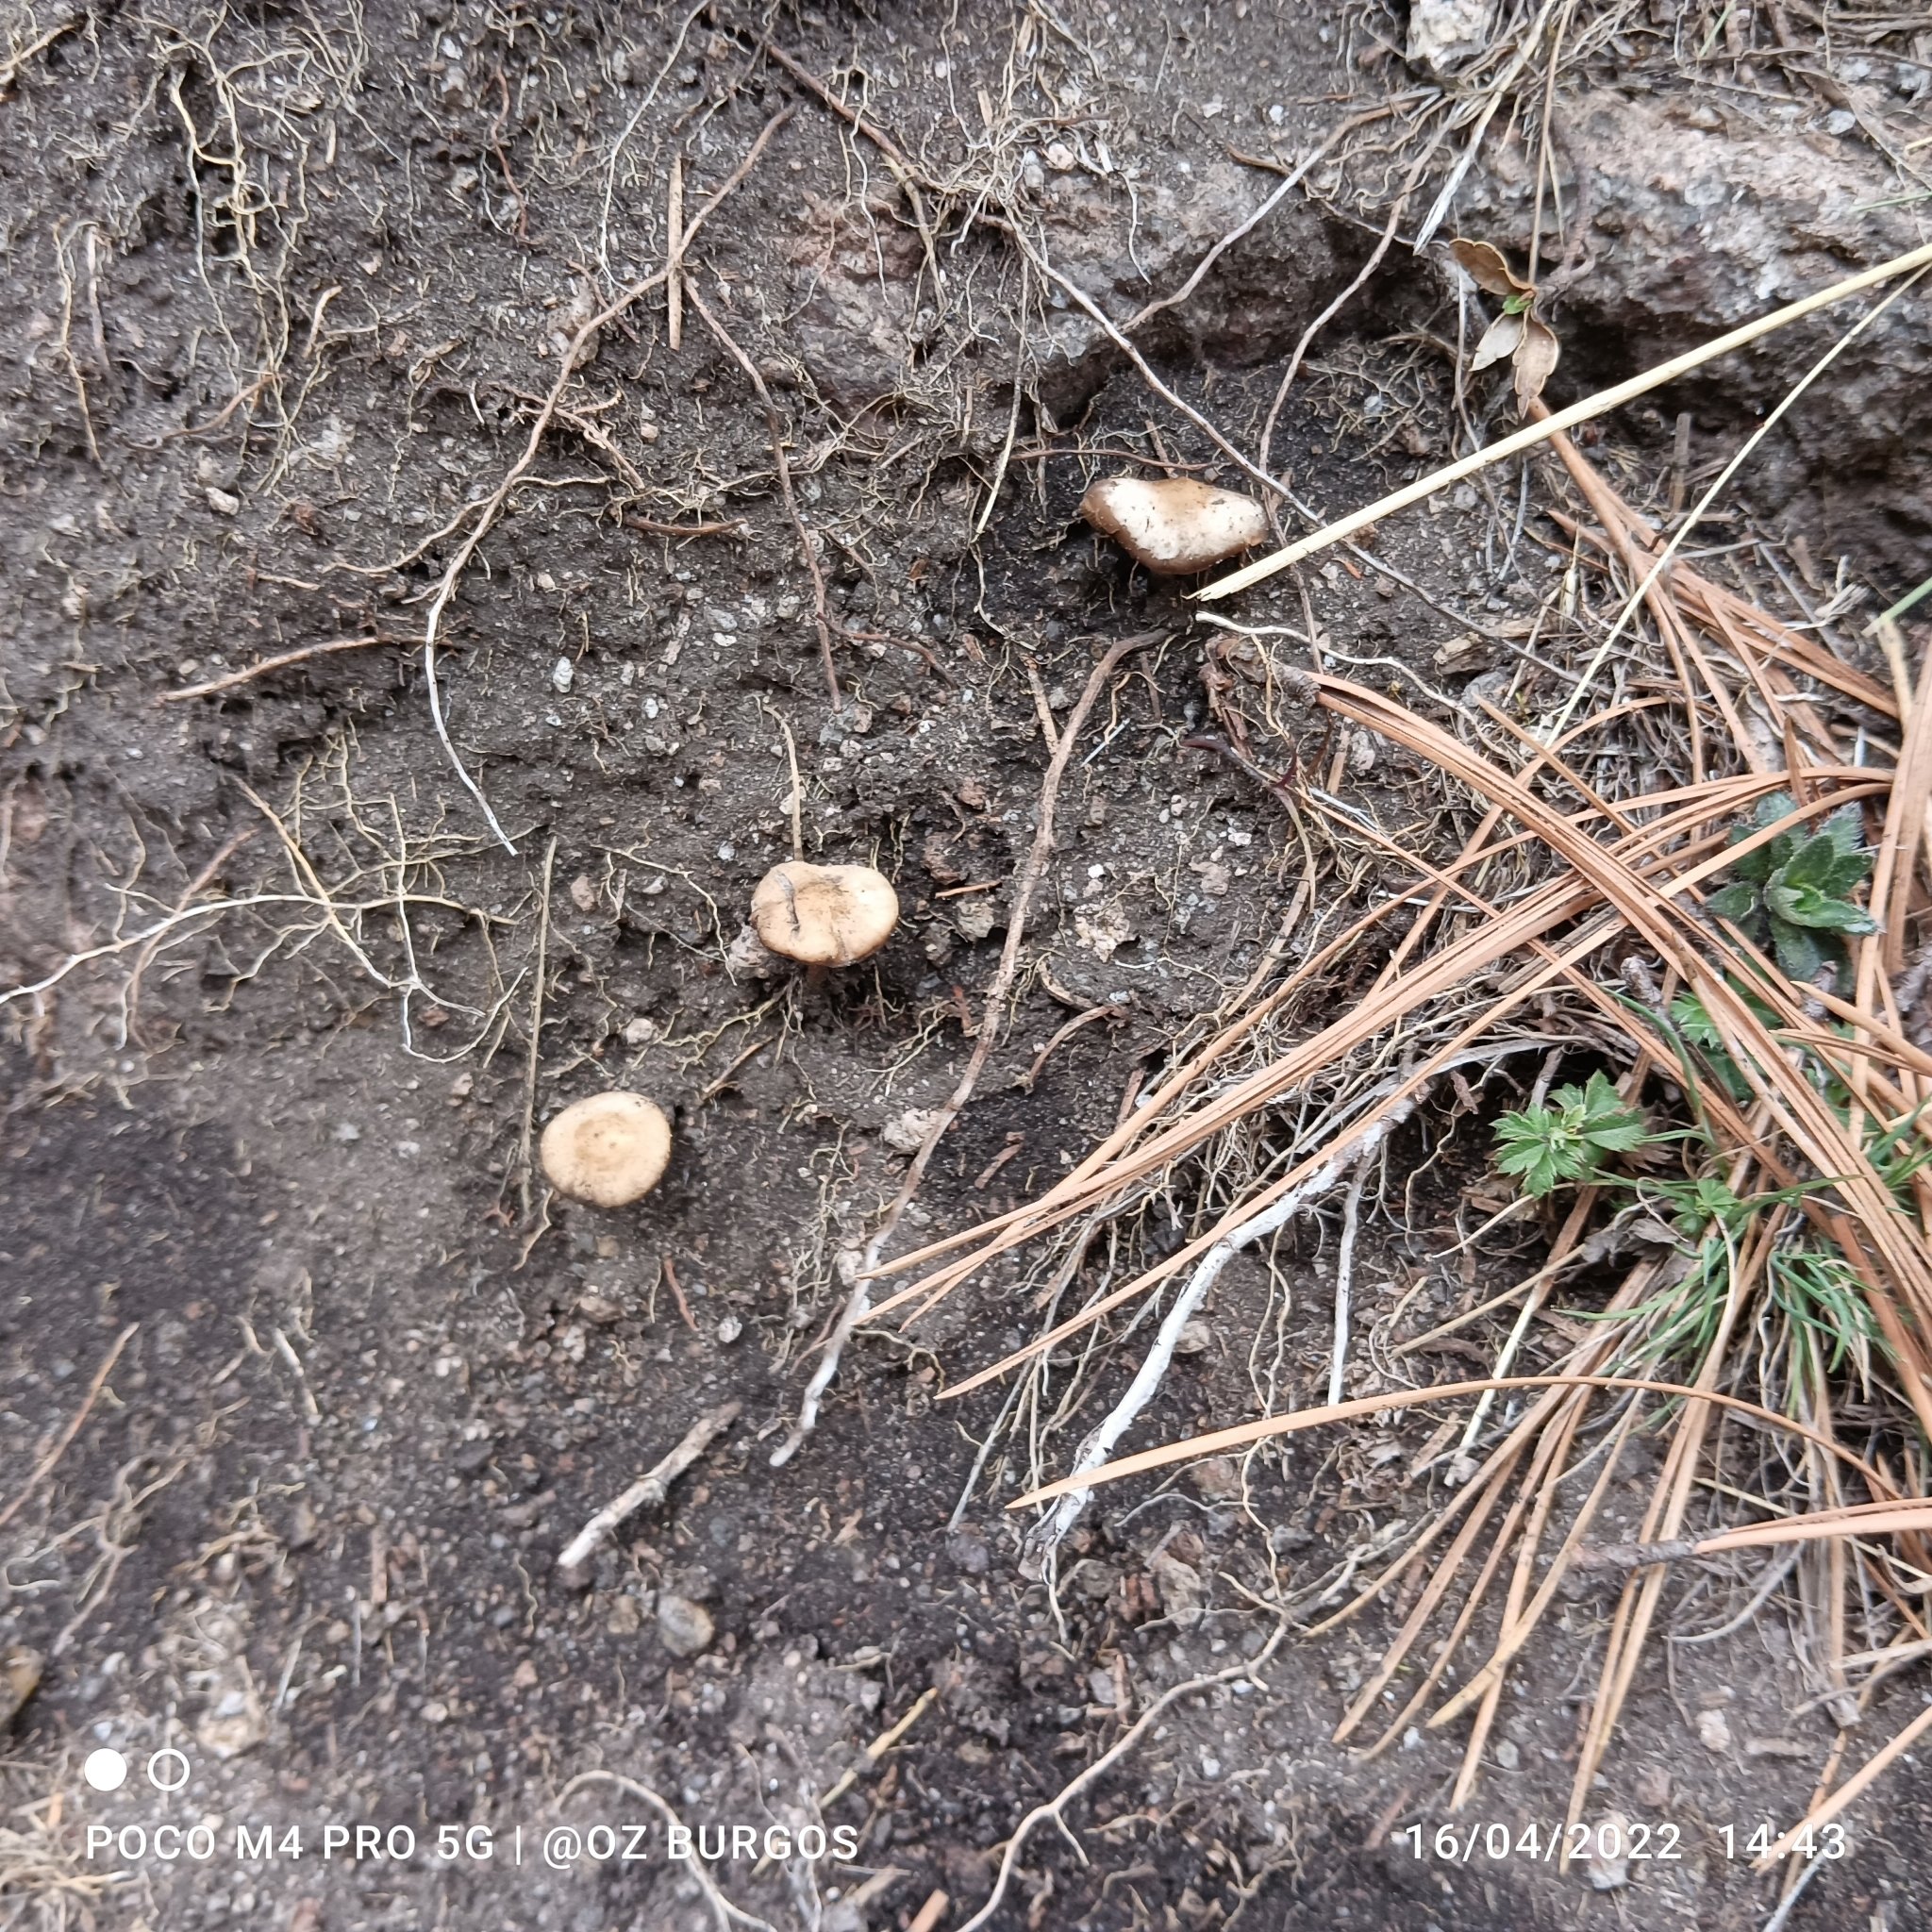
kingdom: Fungi
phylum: Basidiomycota
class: Agaricomycetes
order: Agaricales
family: Bolbitiaceae
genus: Panaeolus
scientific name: Panaeolus cinctulus
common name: Banded mottlegill
